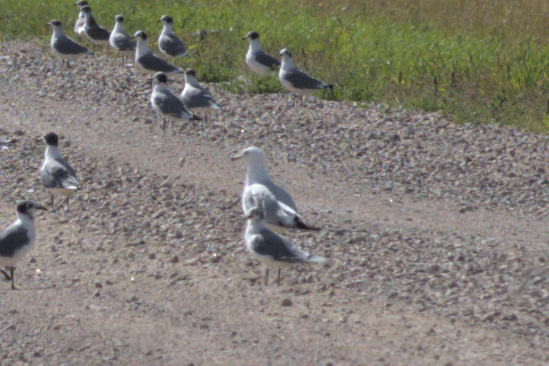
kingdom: Animalia
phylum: Chordata
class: Aves
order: Charadriiformes
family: Laridae
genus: Larus
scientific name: Larus delawarensis
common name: Ring-billed gull
